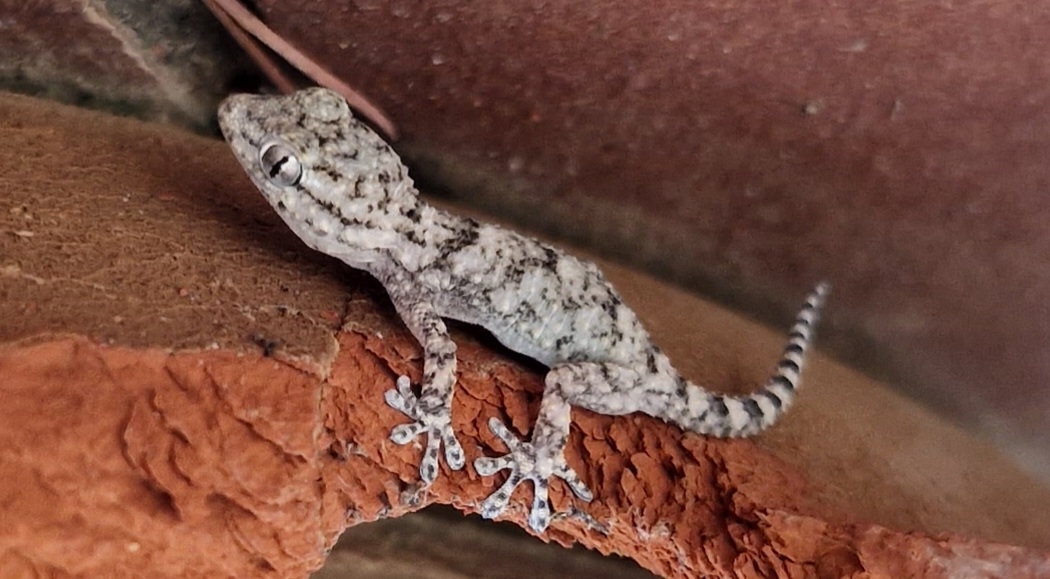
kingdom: Animalia
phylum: Chordata
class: Squamata
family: Phyllodactylidae
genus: Tarentola
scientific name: Tarentola mauritanica
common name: Moorish gecko
